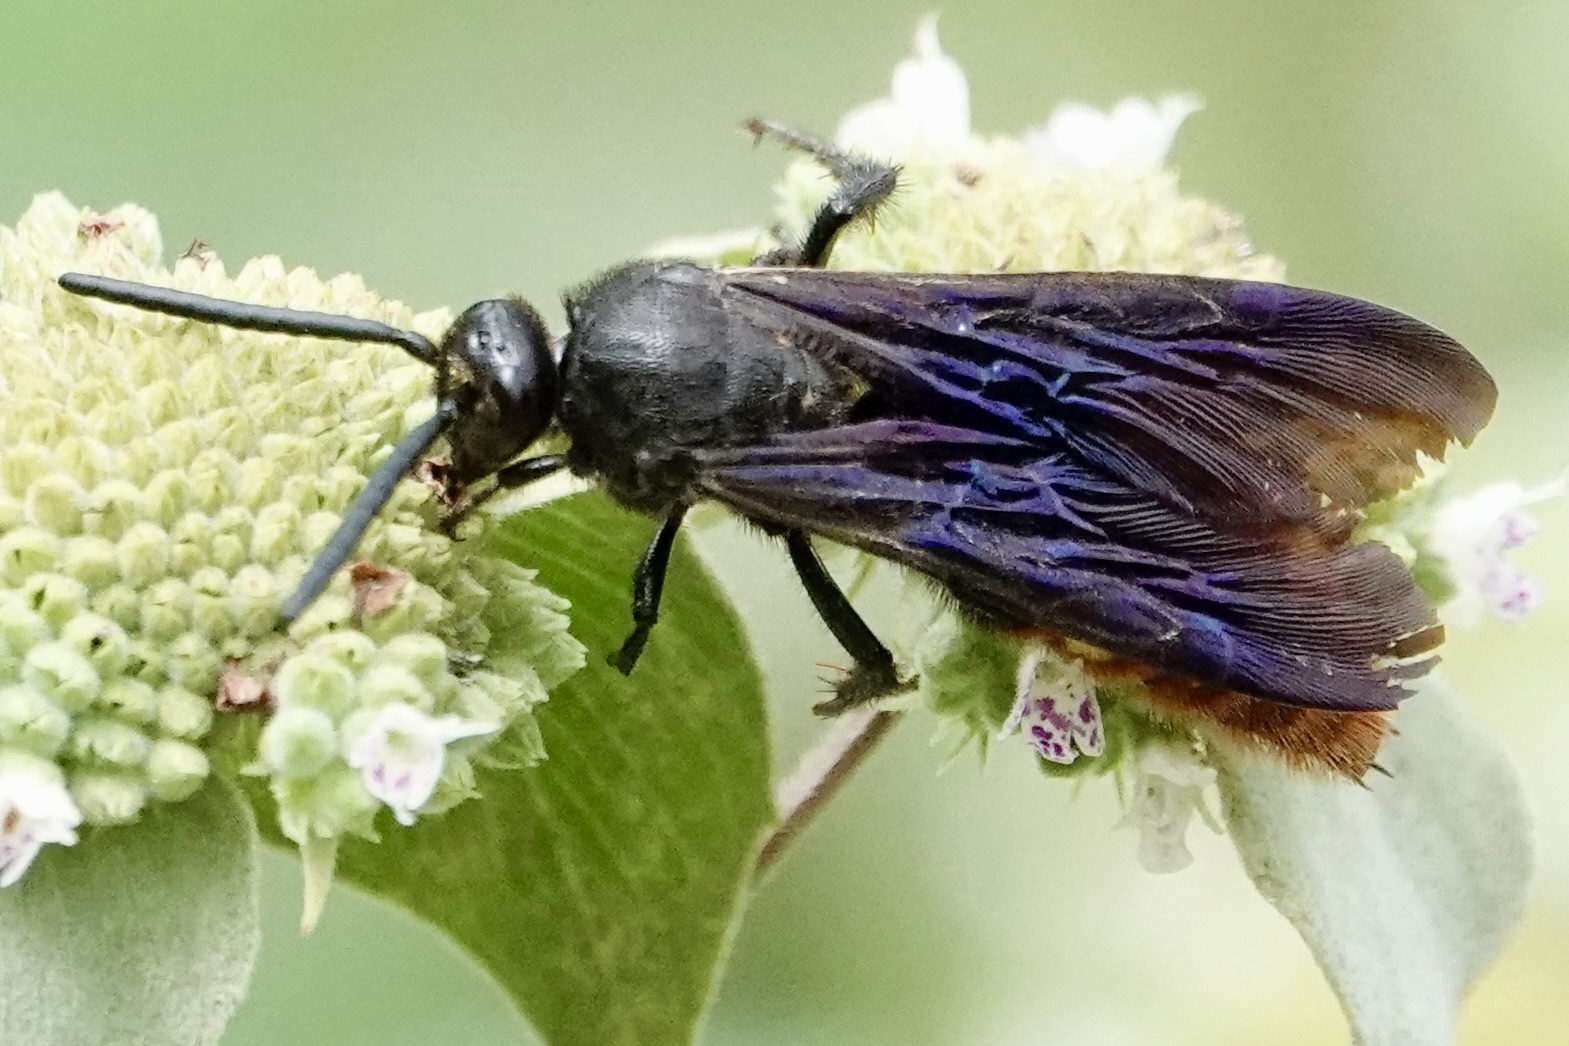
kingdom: Animalia
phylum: Arthropoda
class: Insecta
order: Hymenoptera
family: Scoliidae
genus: Scolia
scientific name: Scolia dubia
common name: Blue-winged scoliid wasp
